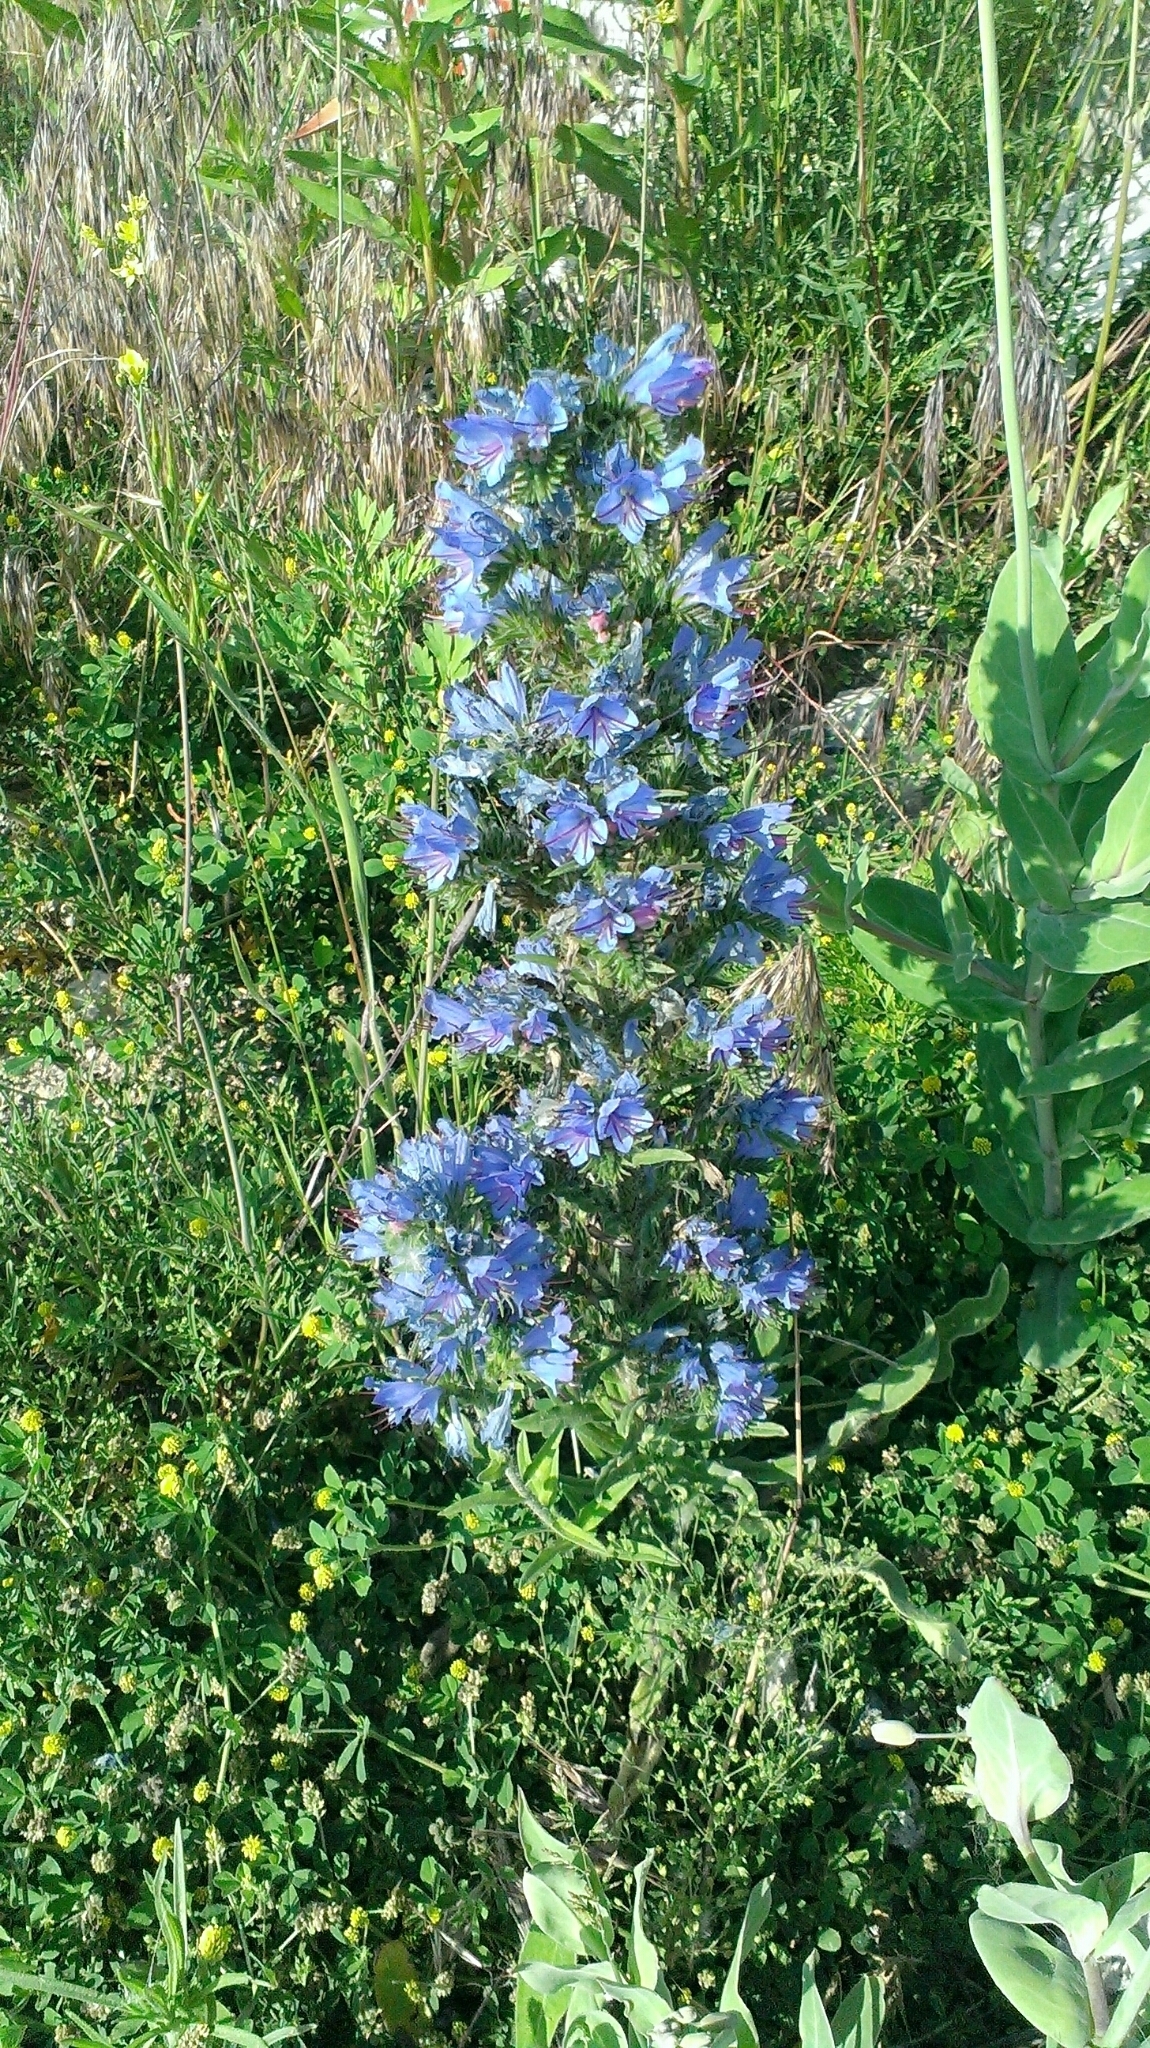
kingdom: Plantae
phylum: Tracheophyta
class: Magnoliopsida
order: Boraginales
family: Boraginaceae
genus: Echium
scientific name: Echium vulgare
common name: Common viper's bugloss
